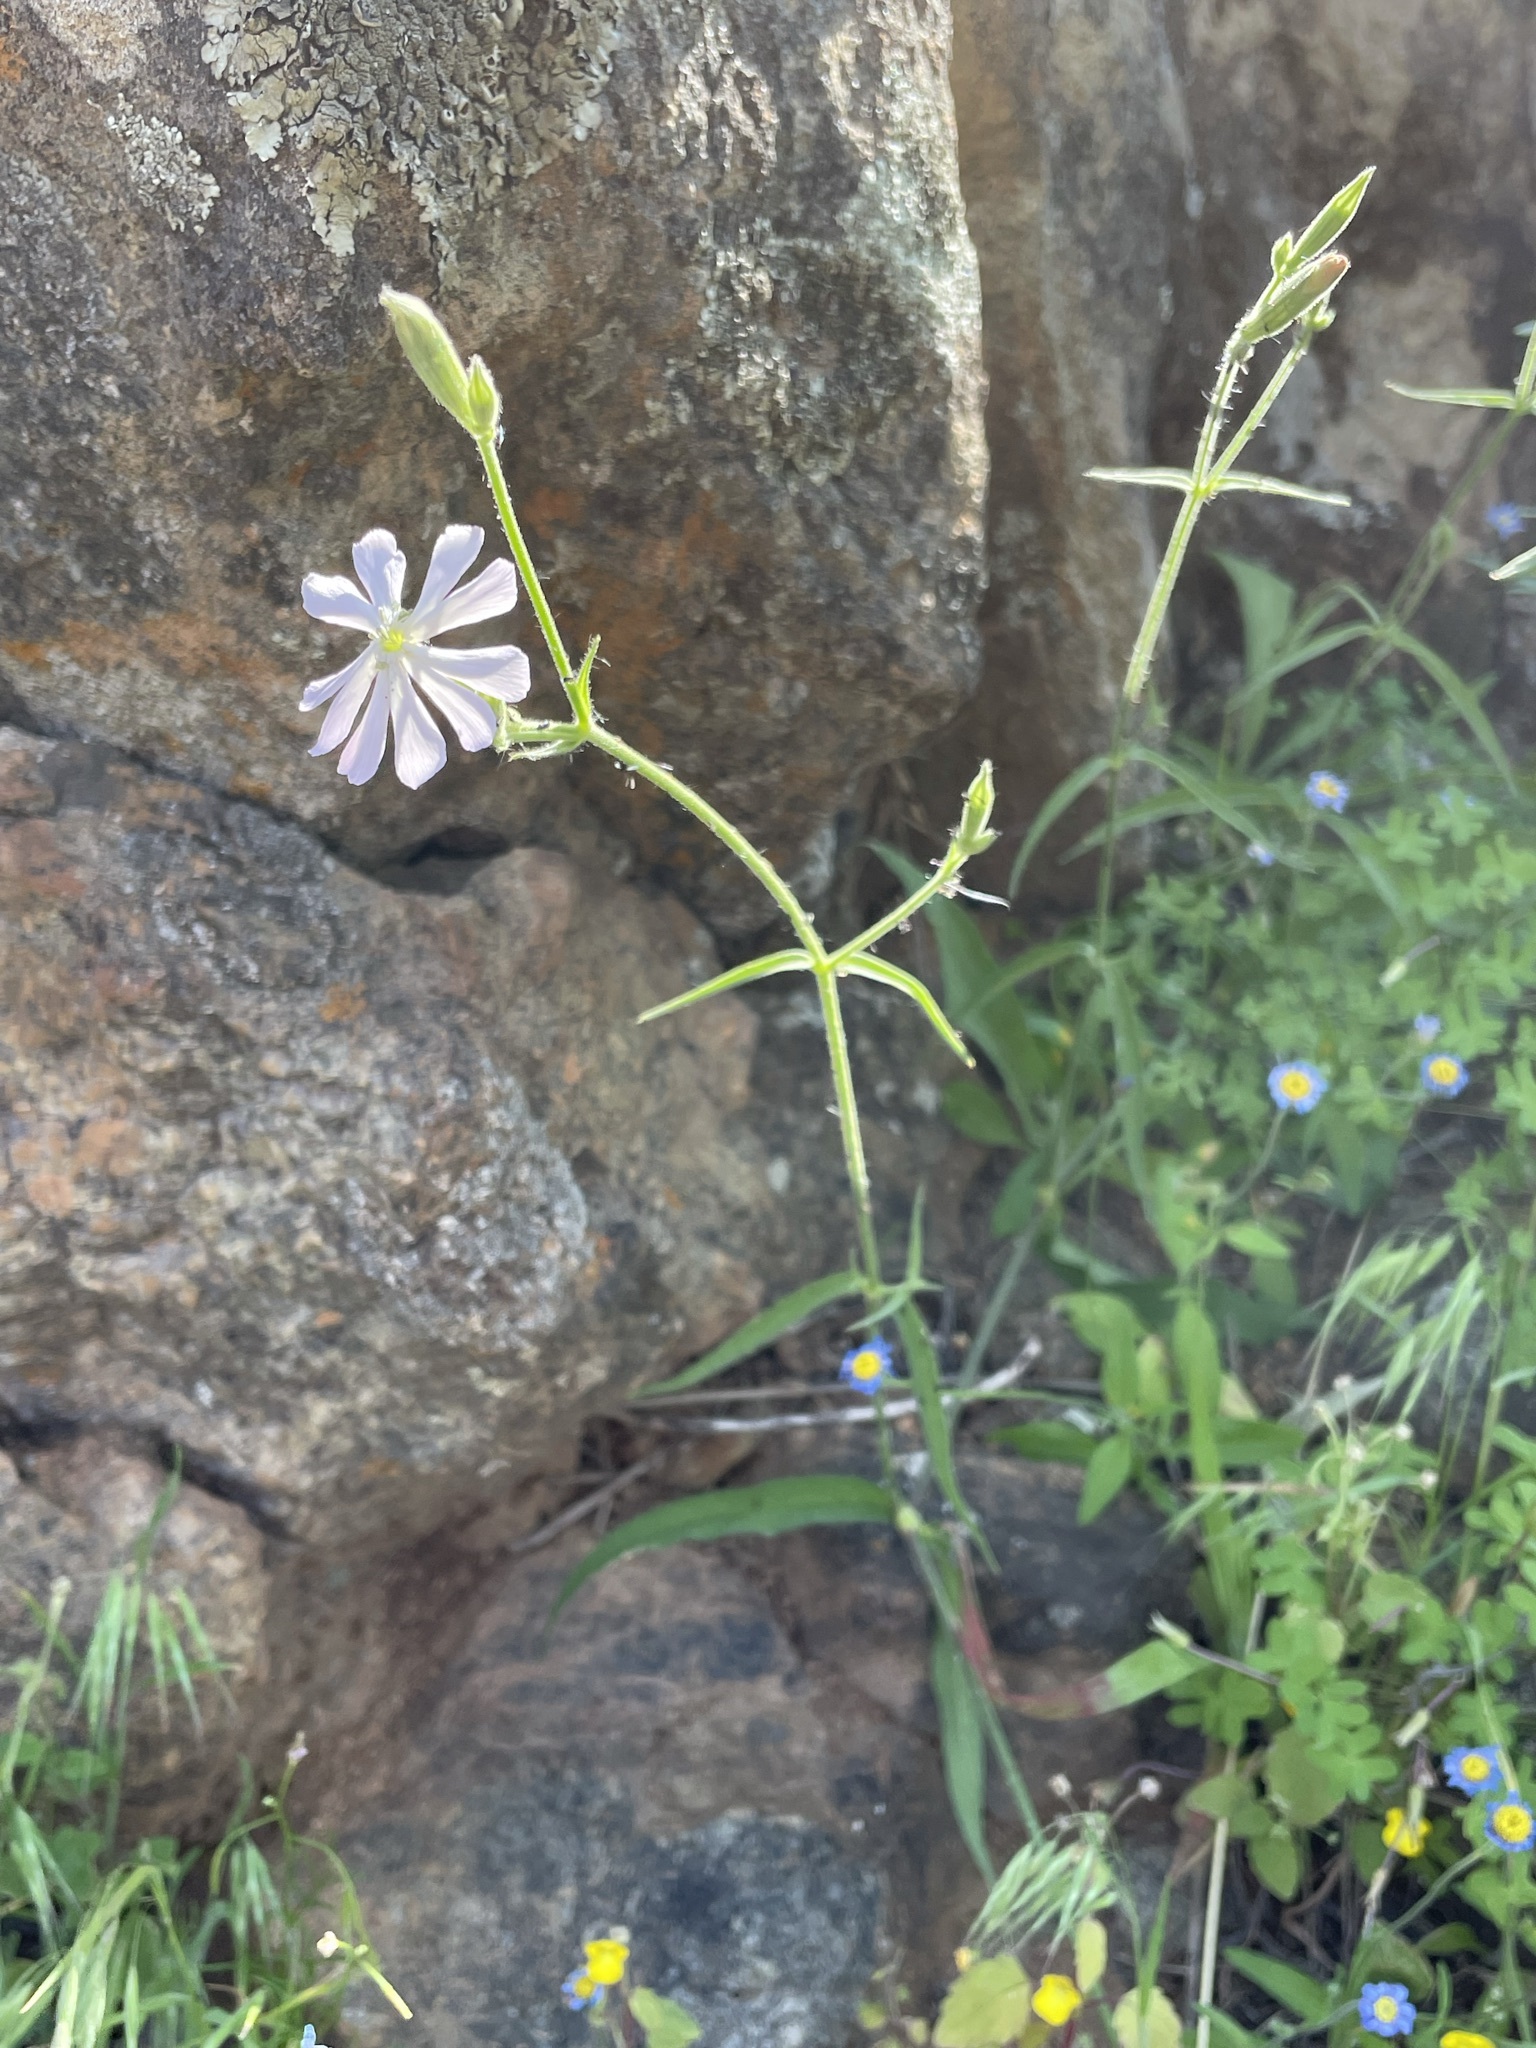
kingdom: Plantae
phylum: Tracheophyta
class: Magnoliopsida
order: Caryophyllales
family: Caryophyllaceae
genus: Silene
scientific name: Silene undulata
